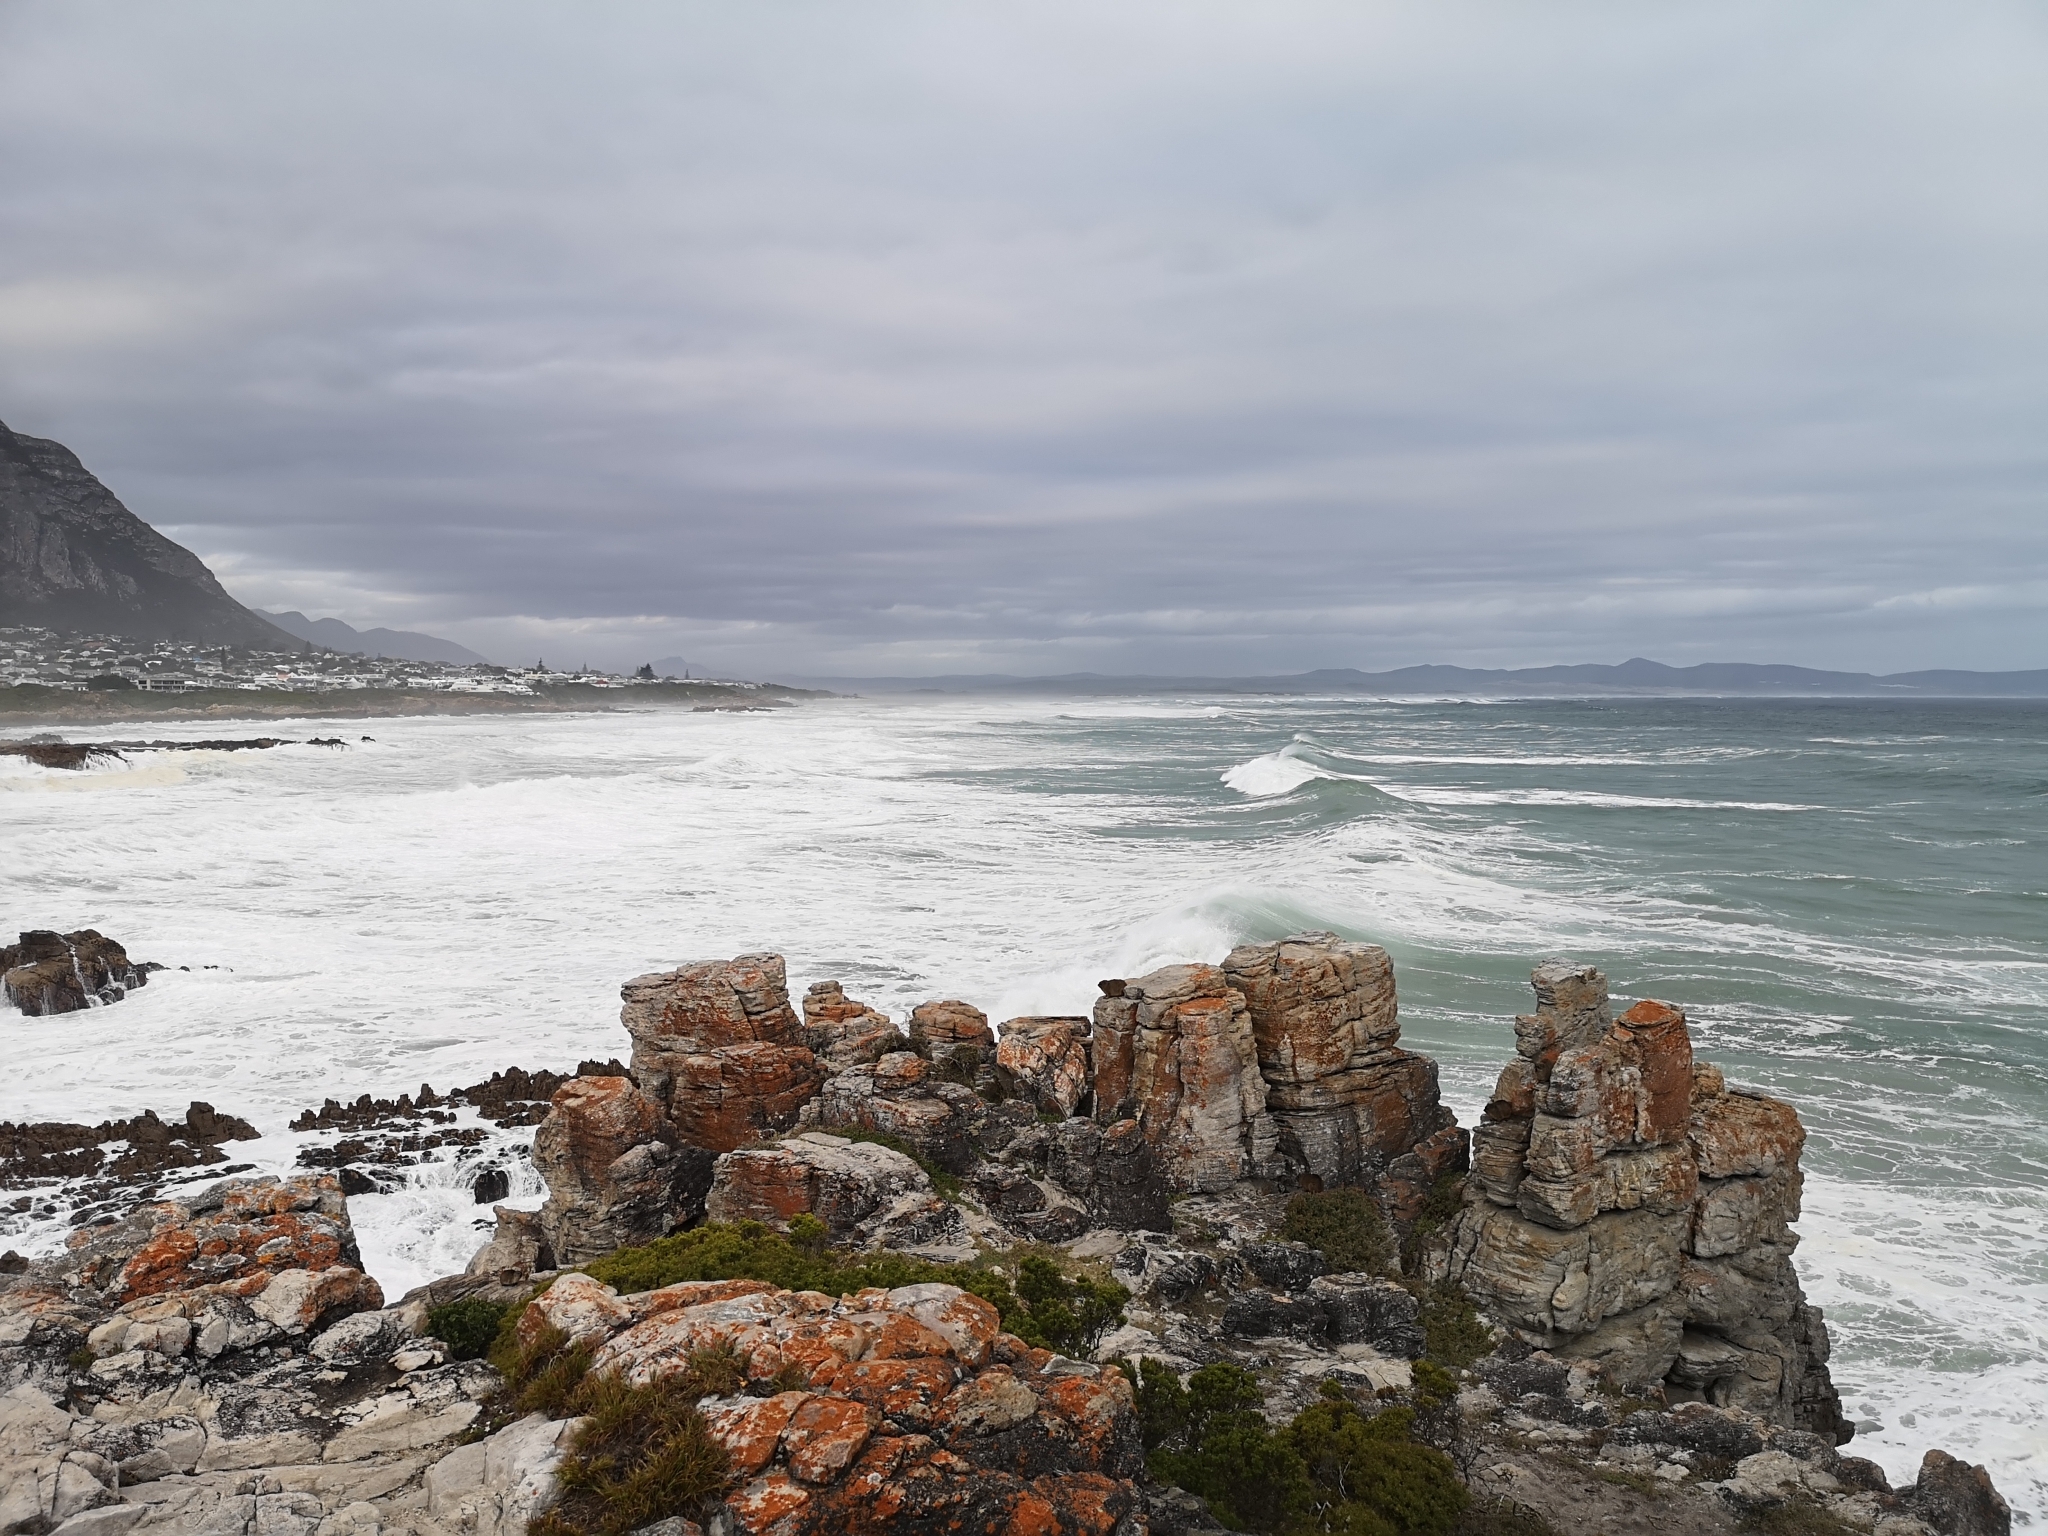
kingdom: Animalia
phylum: Chordata
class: Mammalia
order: Hyracoidea
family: Procaviidae
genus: Procavia
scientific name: Procavia capensis
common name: Rock hyrax
